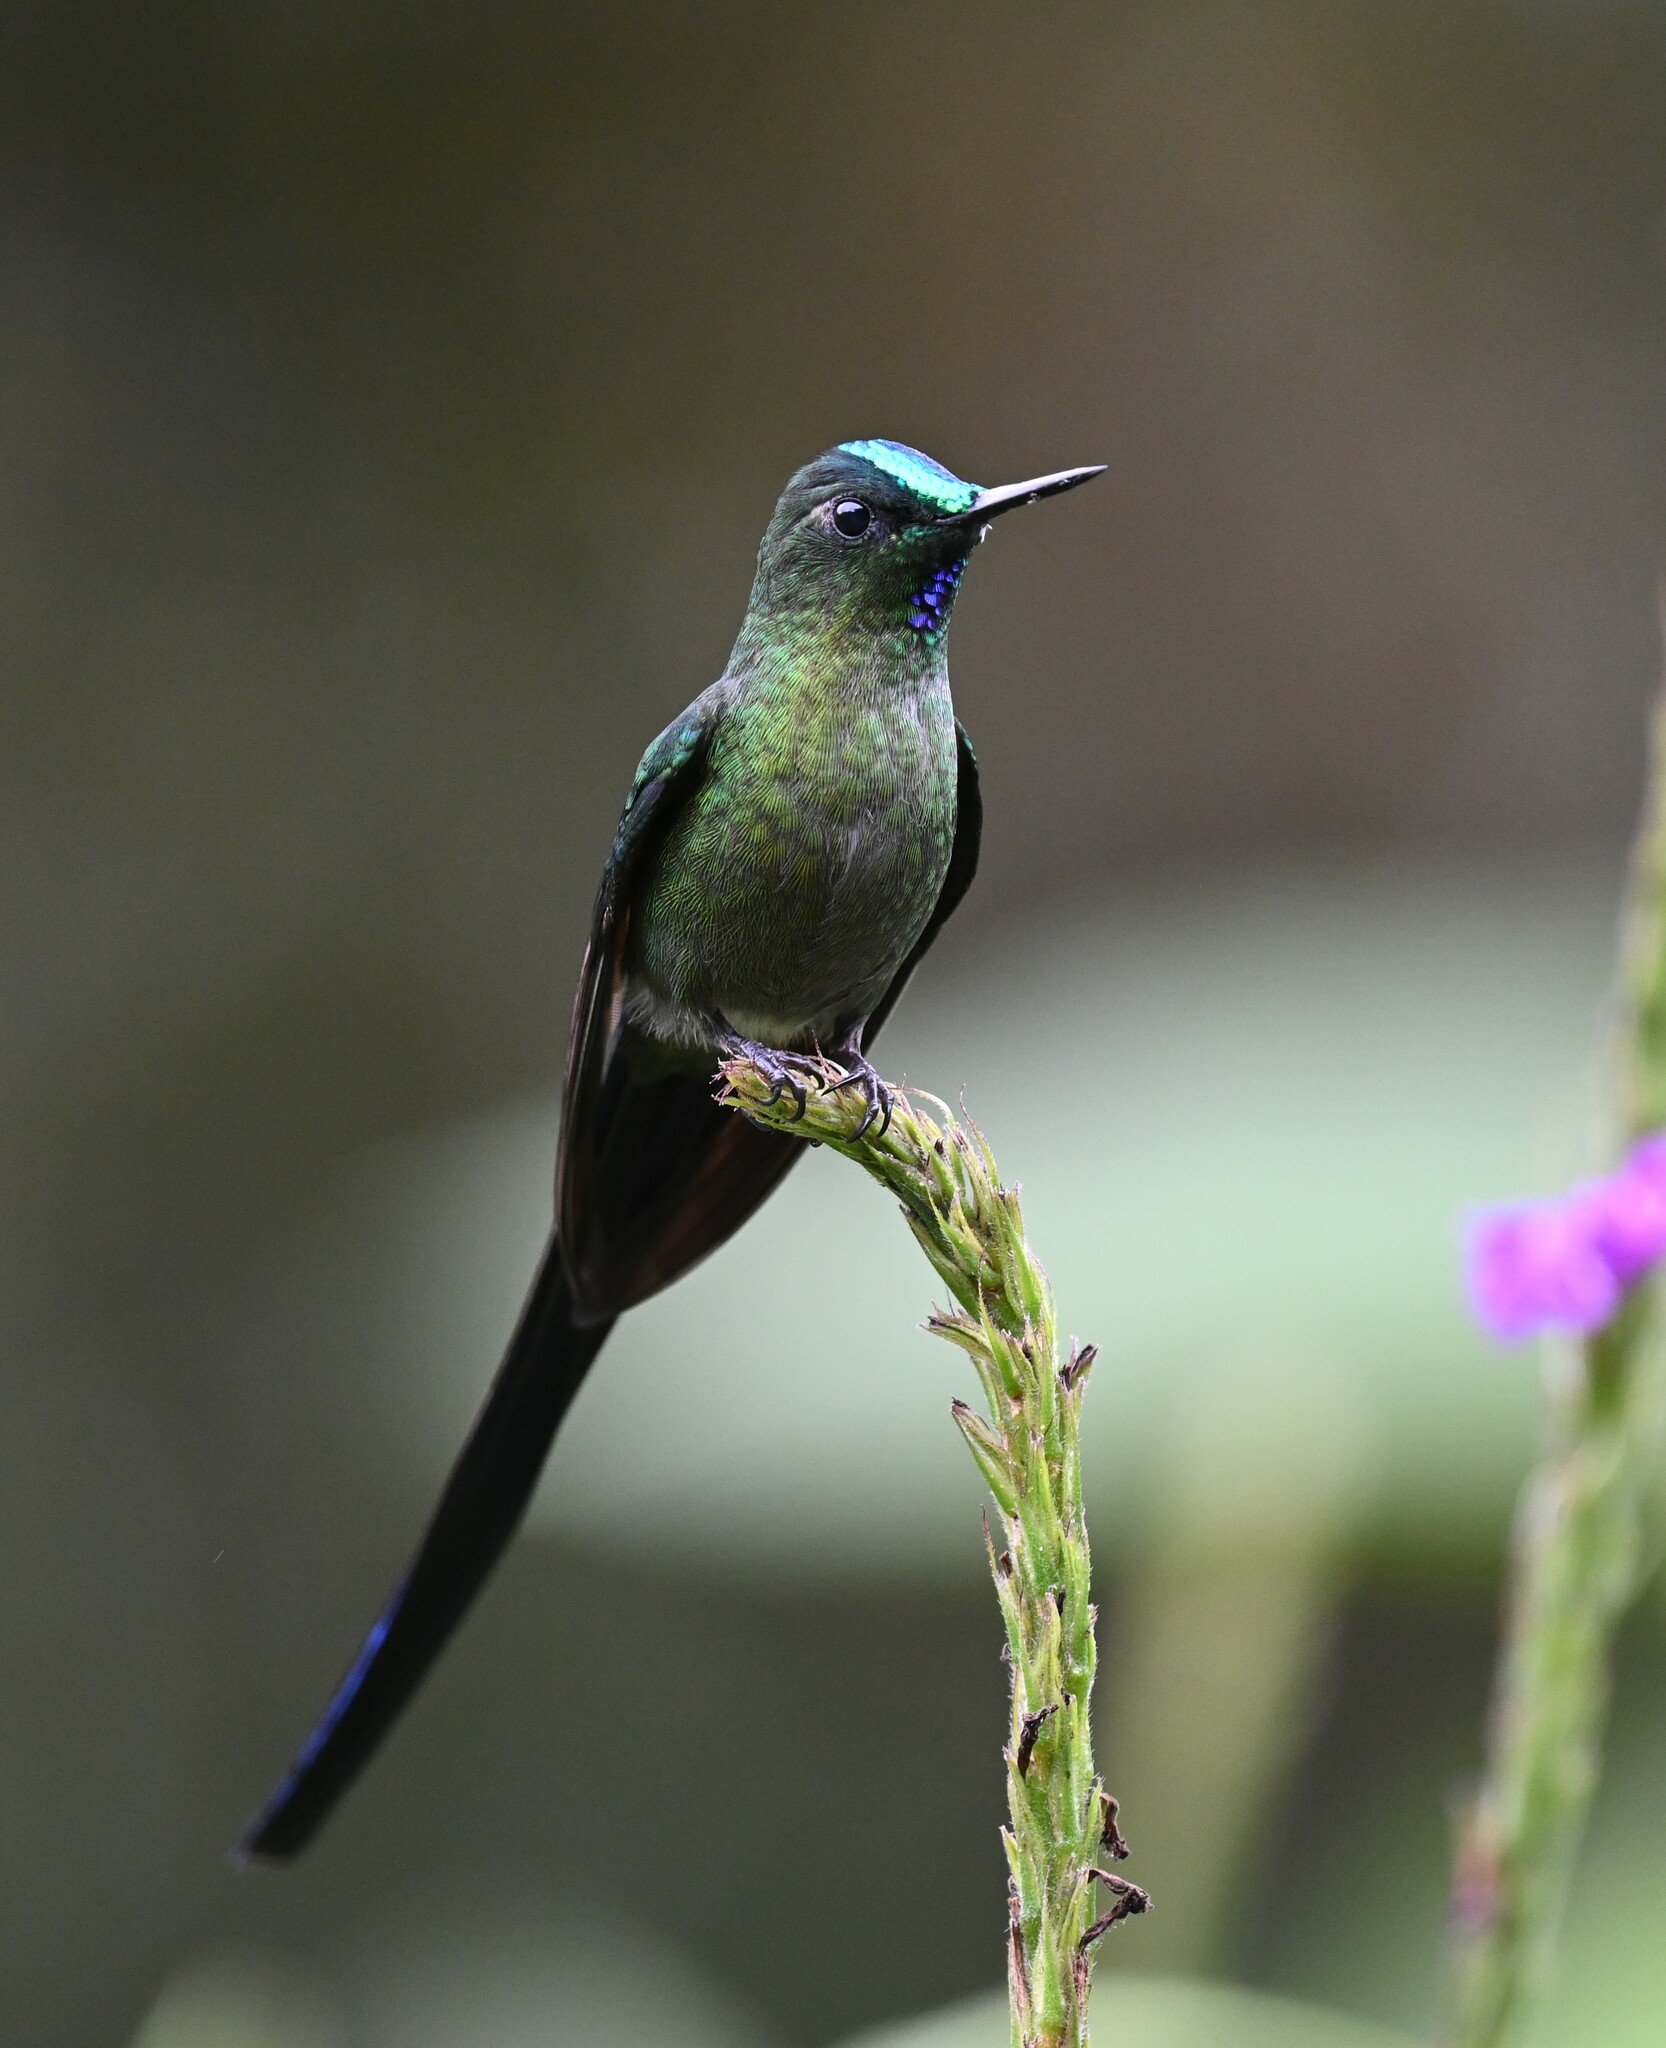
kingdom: Animalia
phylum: Chordata
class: Aves
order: Apodiformes
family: Trochilidae
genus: Aglaiocercus
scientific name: Aglaiocercus kingii
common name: Long-tailed sylph
